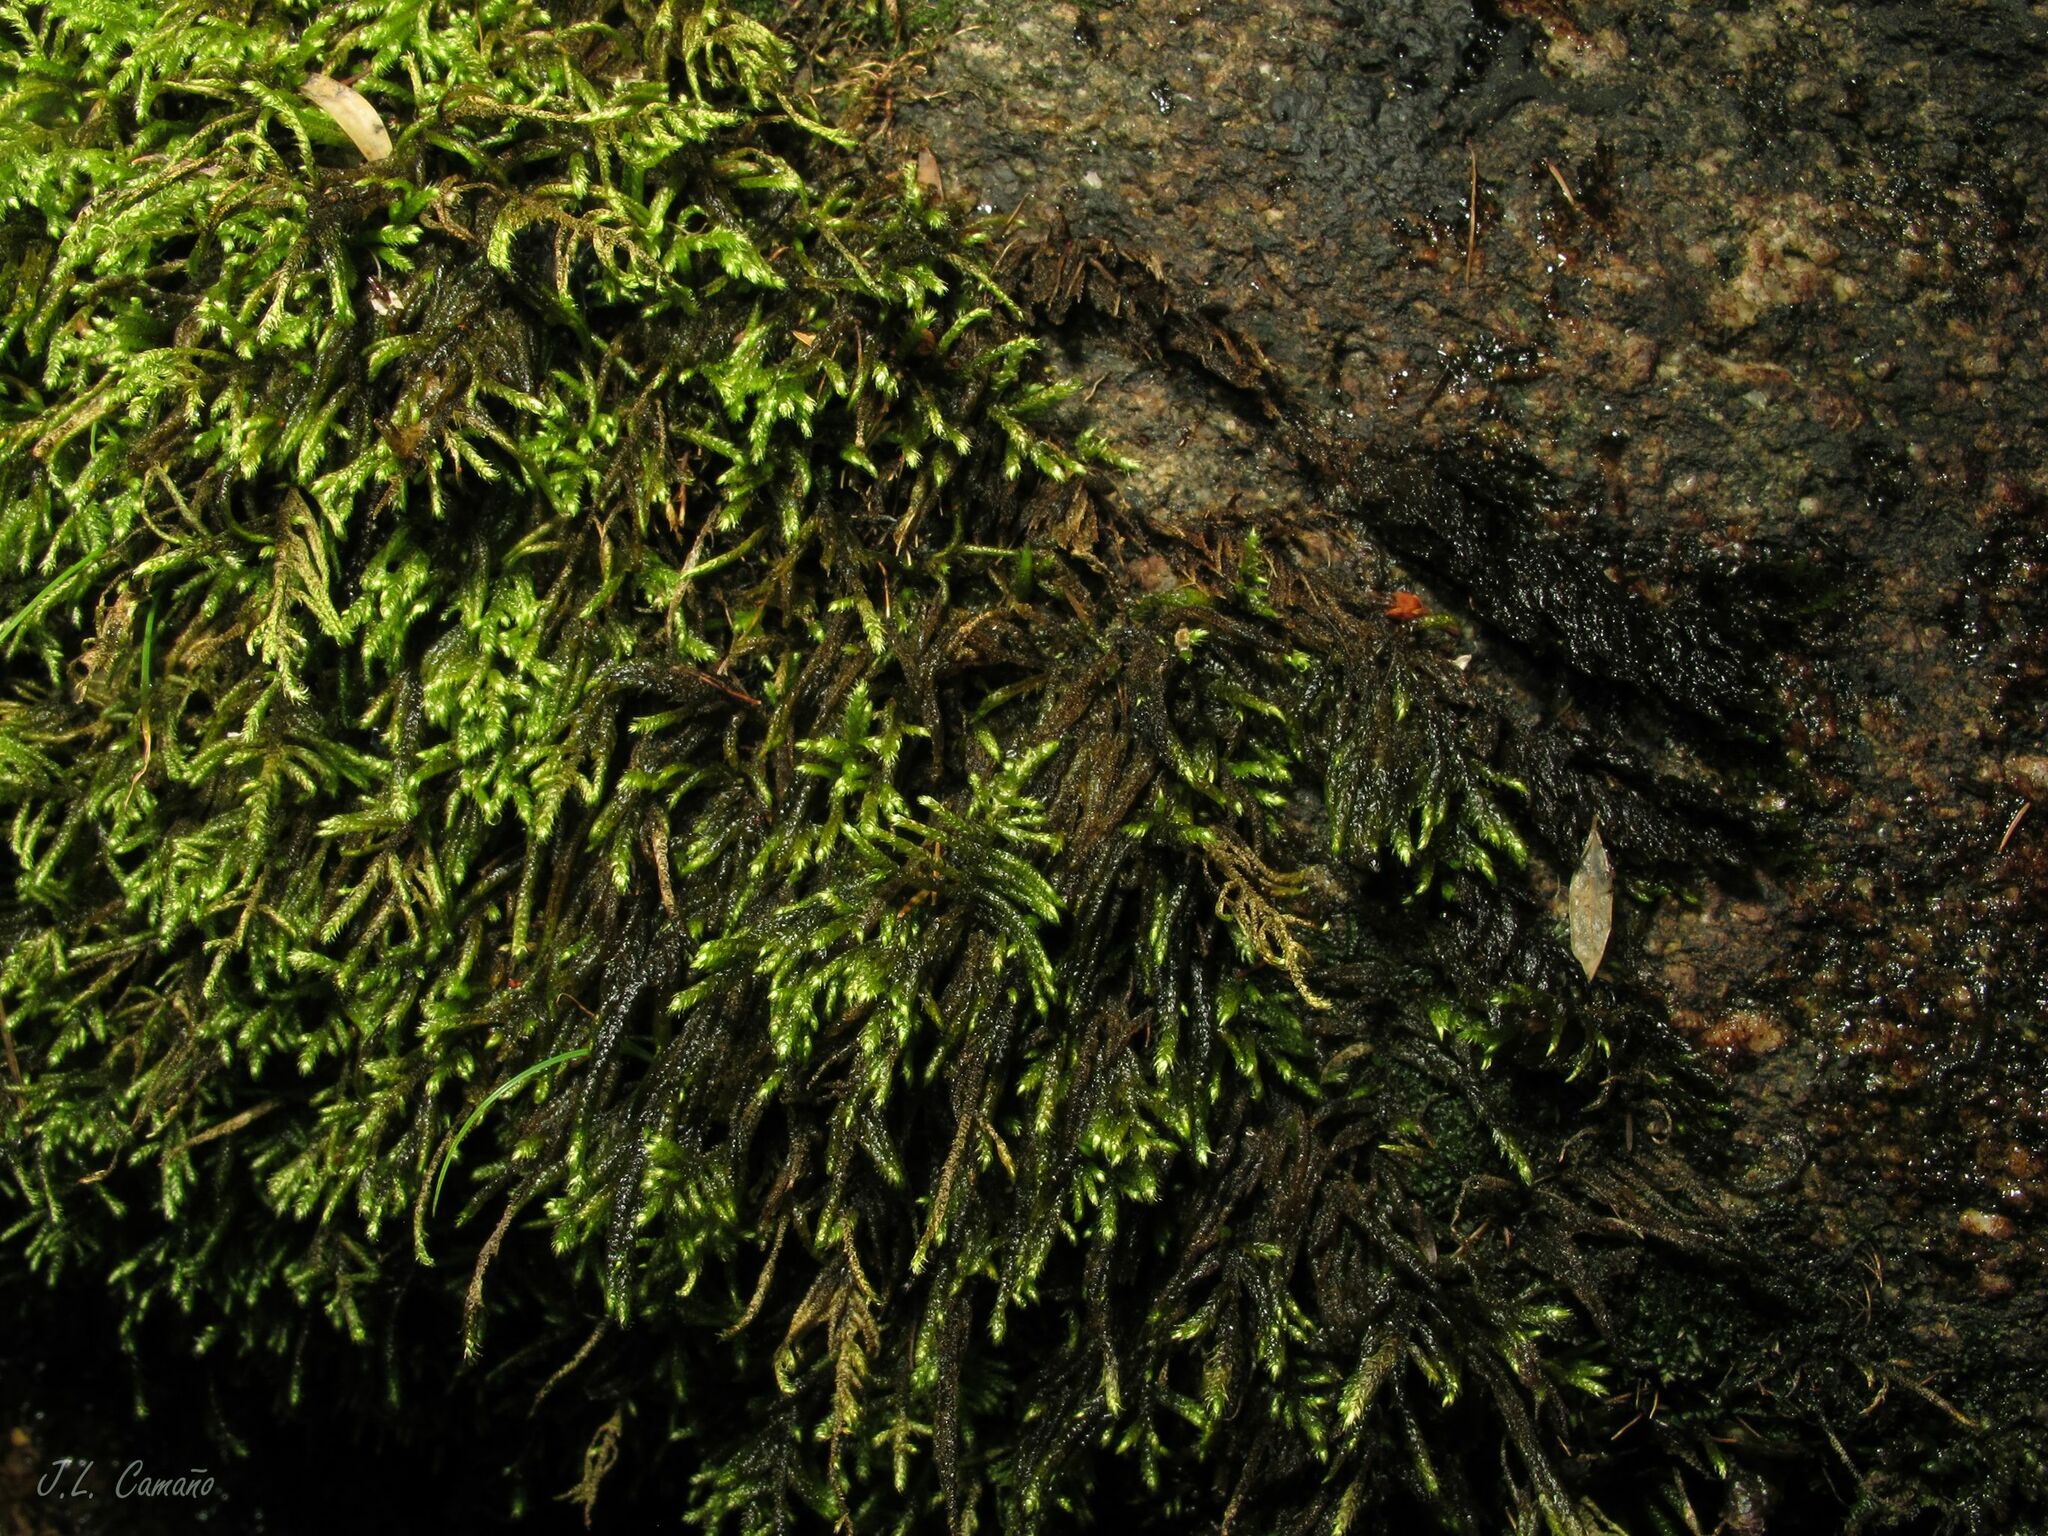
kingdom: Plantae
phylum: Bryophyta
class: Bryopsida
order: Hypnales
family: Myuriaceae
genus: Hyocomium
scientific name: Hyocomium armoricum
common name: Flagellate feather-moss
